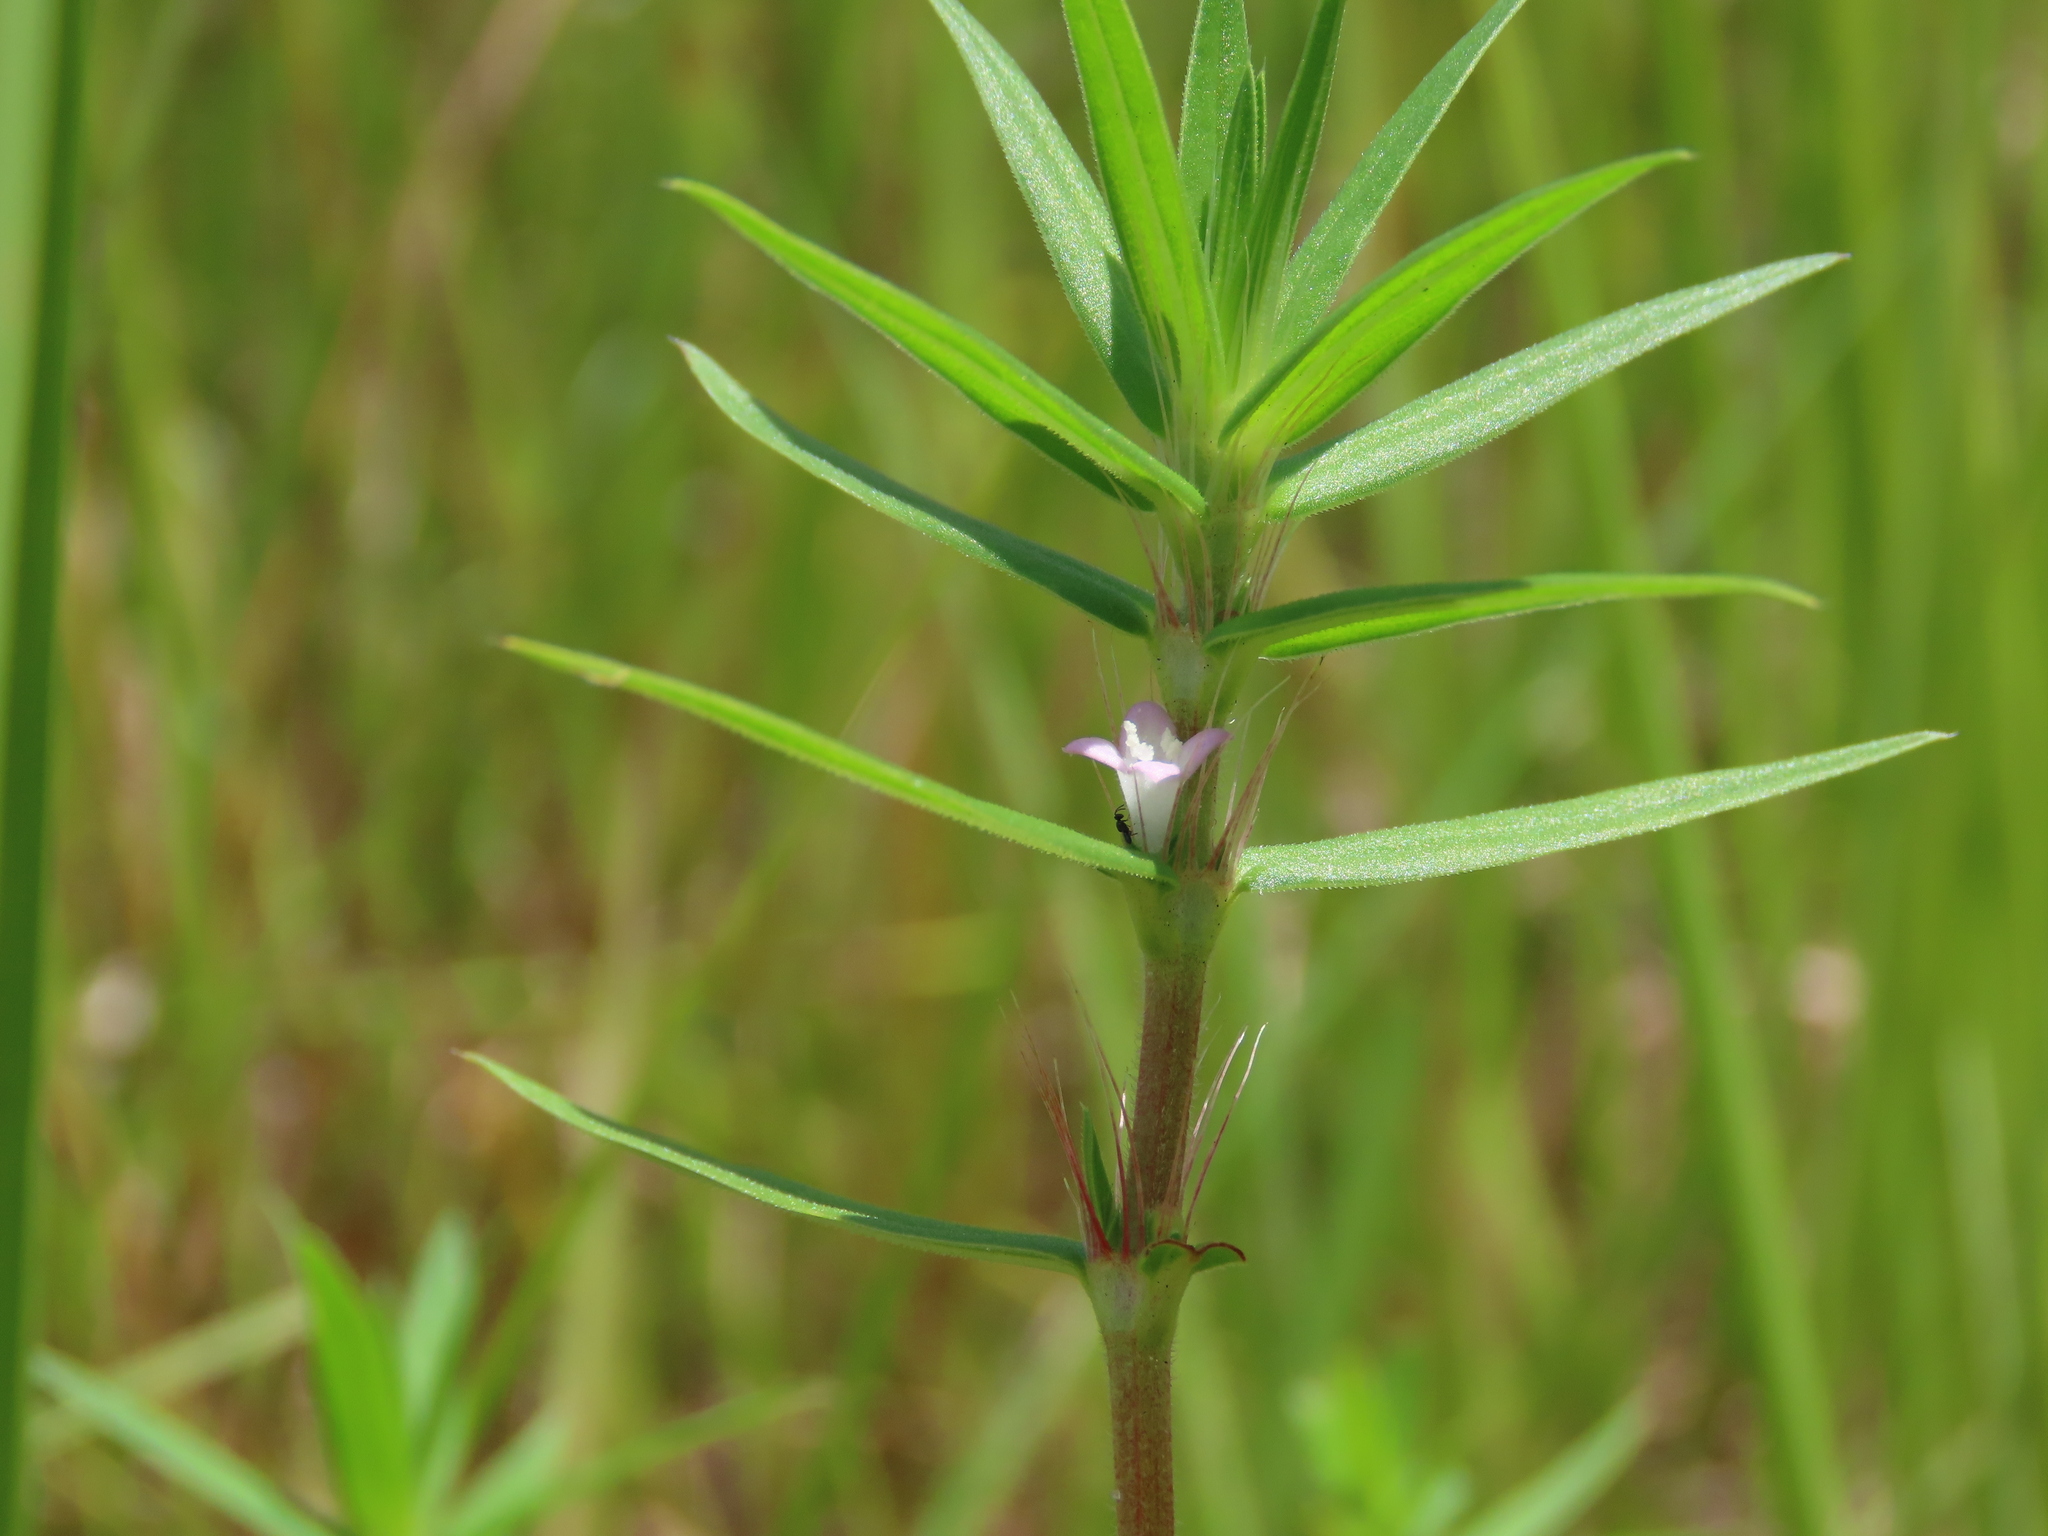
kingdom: Plantae
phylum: Tracheophyta
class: Magnoliopsida
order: Gentianales
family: Rubiaceae
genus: Hexasepalum
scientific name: Hexasepalum teres
